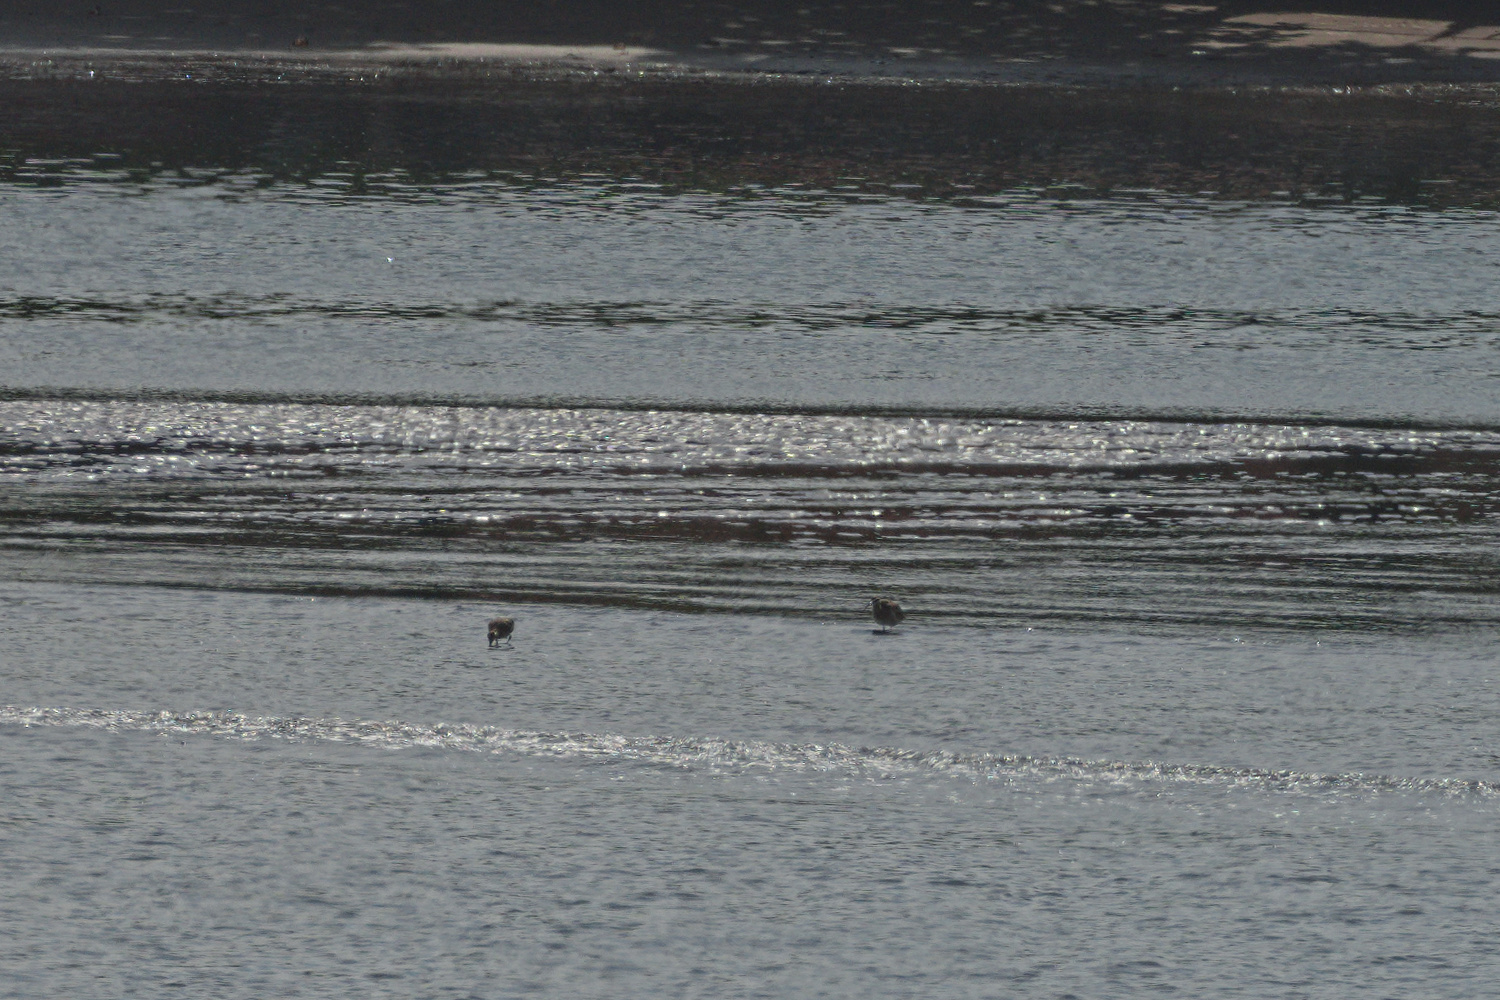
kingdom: Animalia
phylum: Chordata
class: Aves
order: Charadriiformes
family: Scolopacidae
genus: Numenius
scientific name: Numenius phaeopus
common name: Whimbrel
